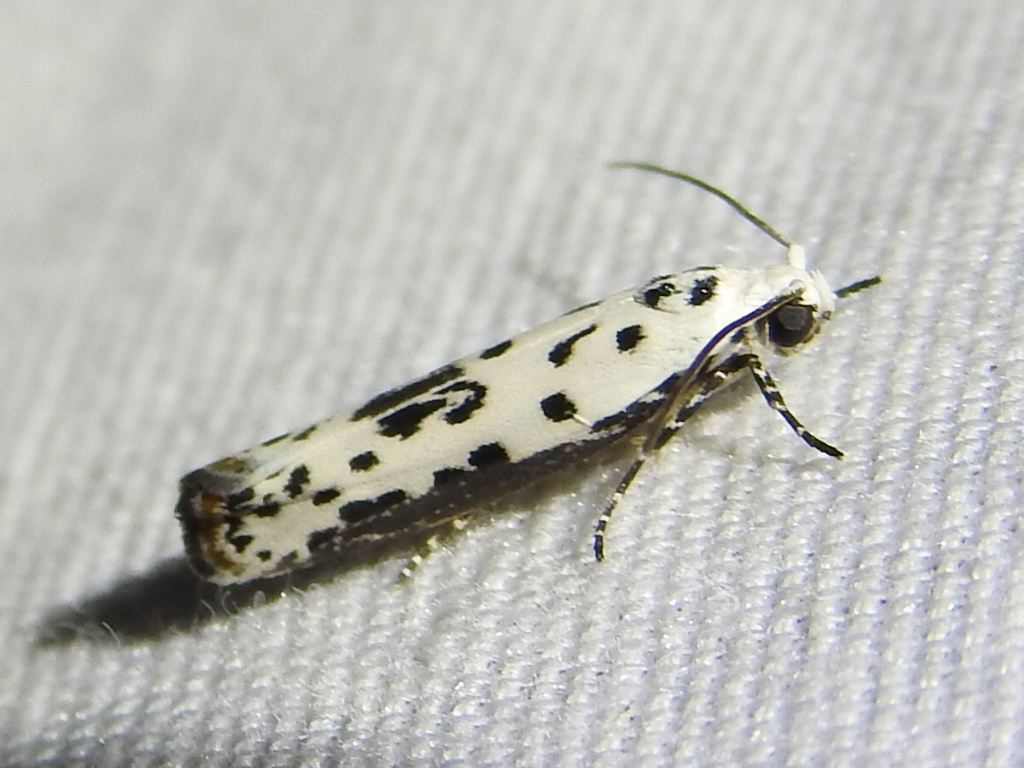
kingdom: Animalia
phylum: Arthropoda
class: Insecta
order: Lepidoptera
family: Ethmiidae
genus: Ethmia
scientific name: Ethmia bittenella
